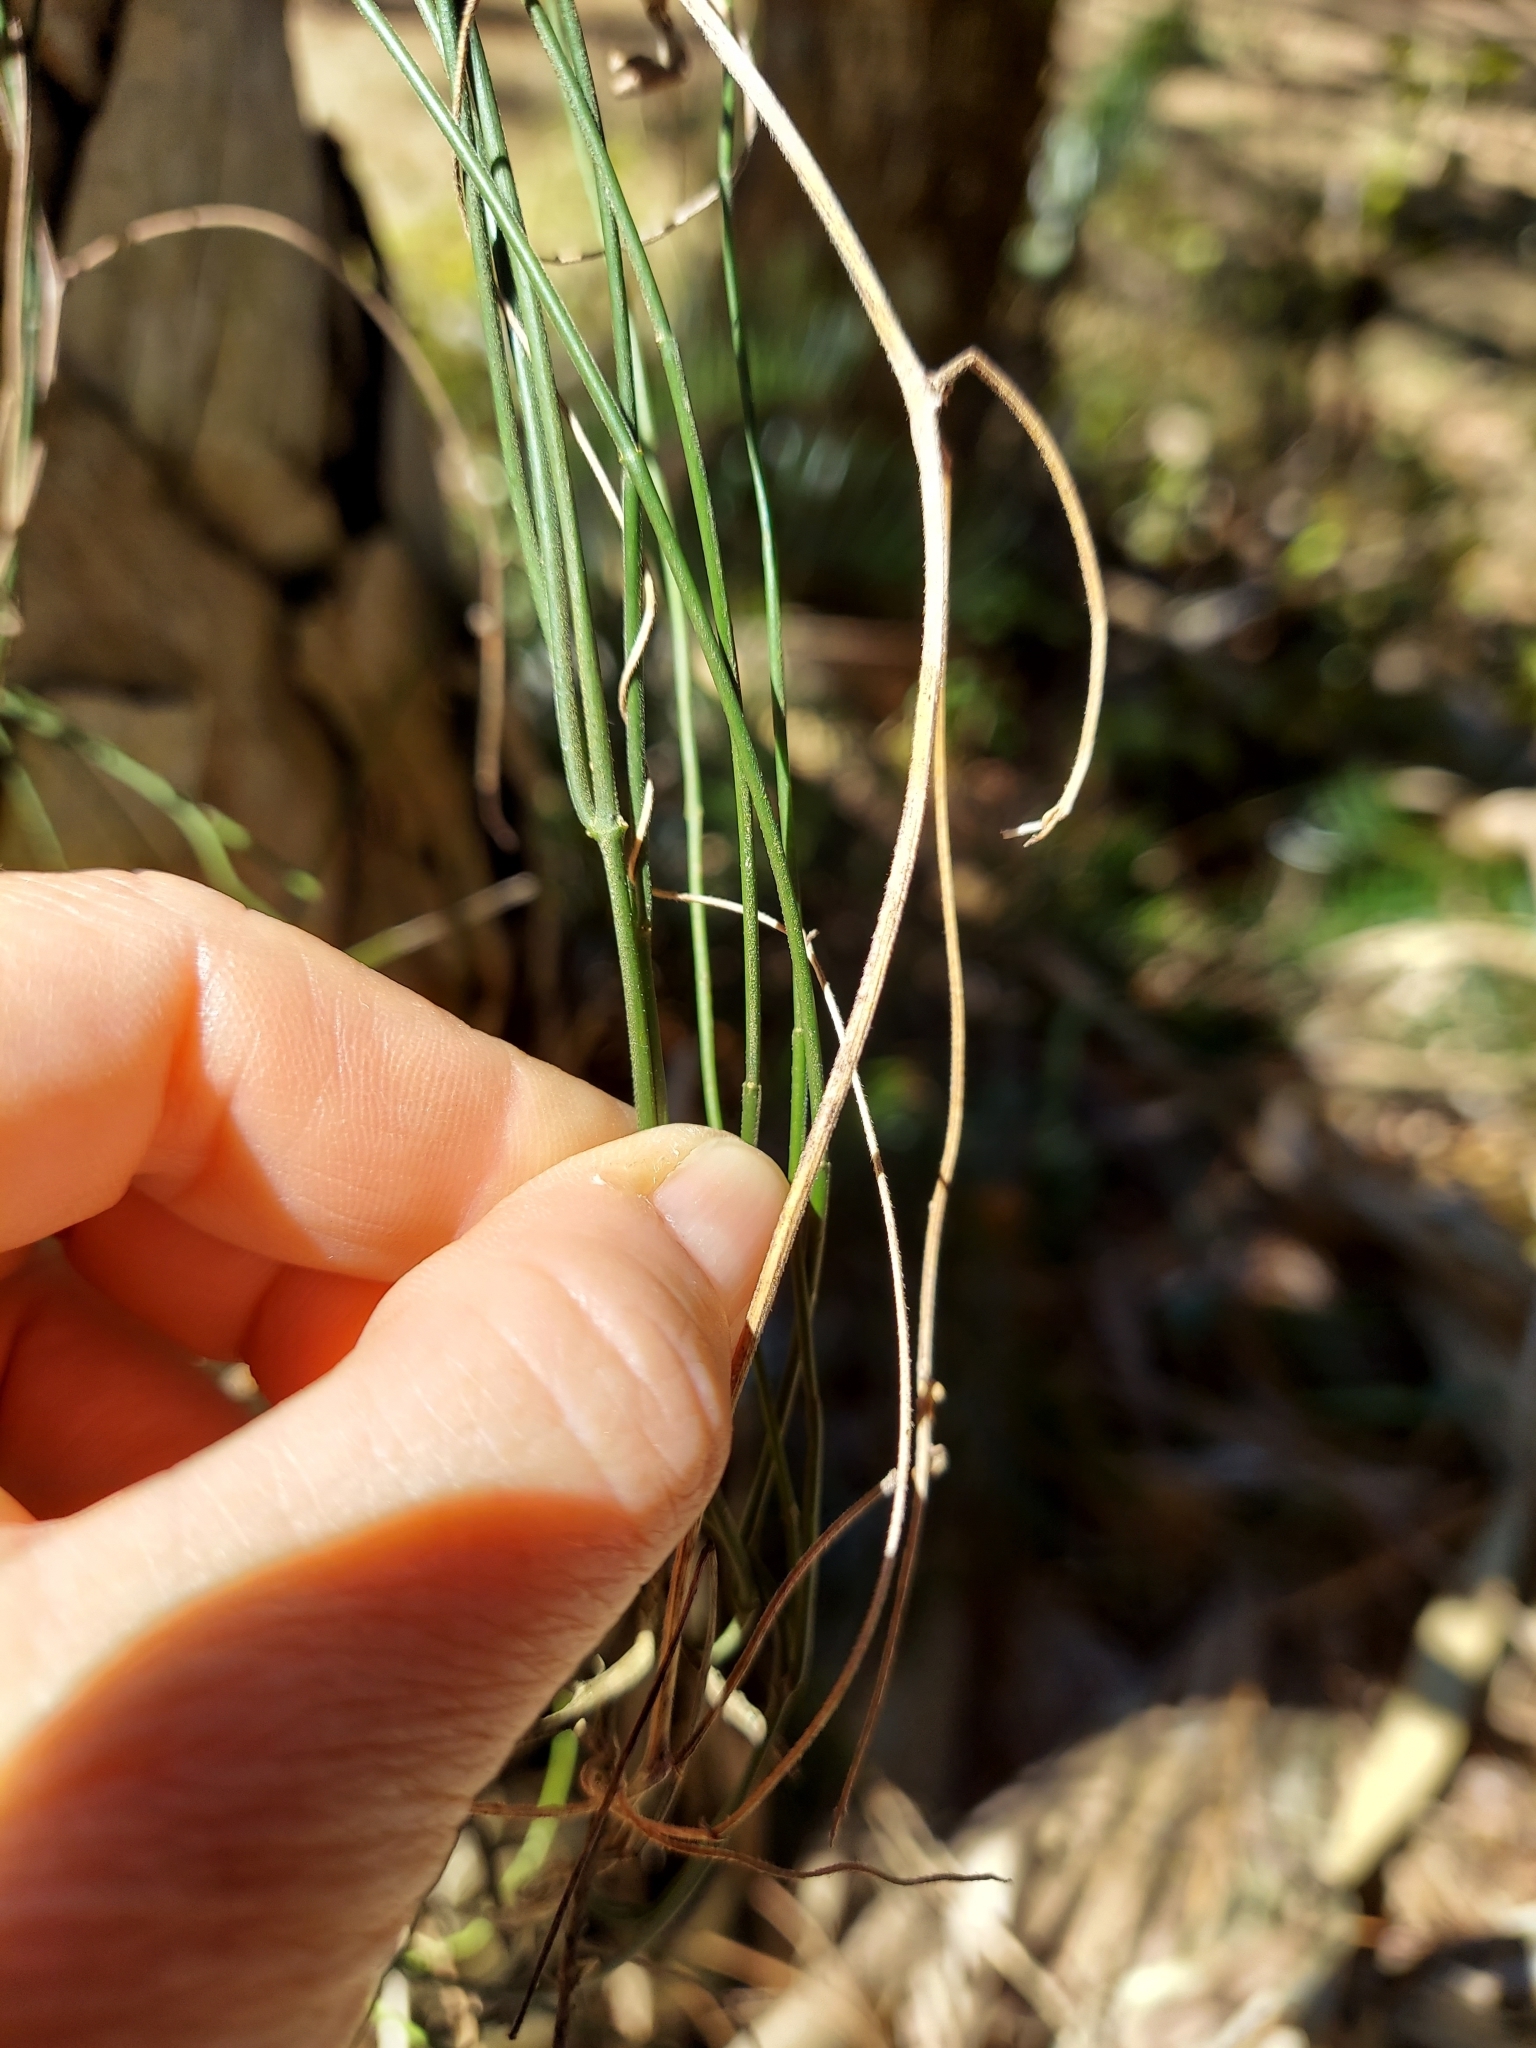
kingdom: Plantae
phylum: Tracheophyta
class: Magnoliopsida
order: Gentianales
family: Apocynaceae
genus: Orthosia
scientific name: Orthosia scoparia
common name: Leafless swallow-wort
